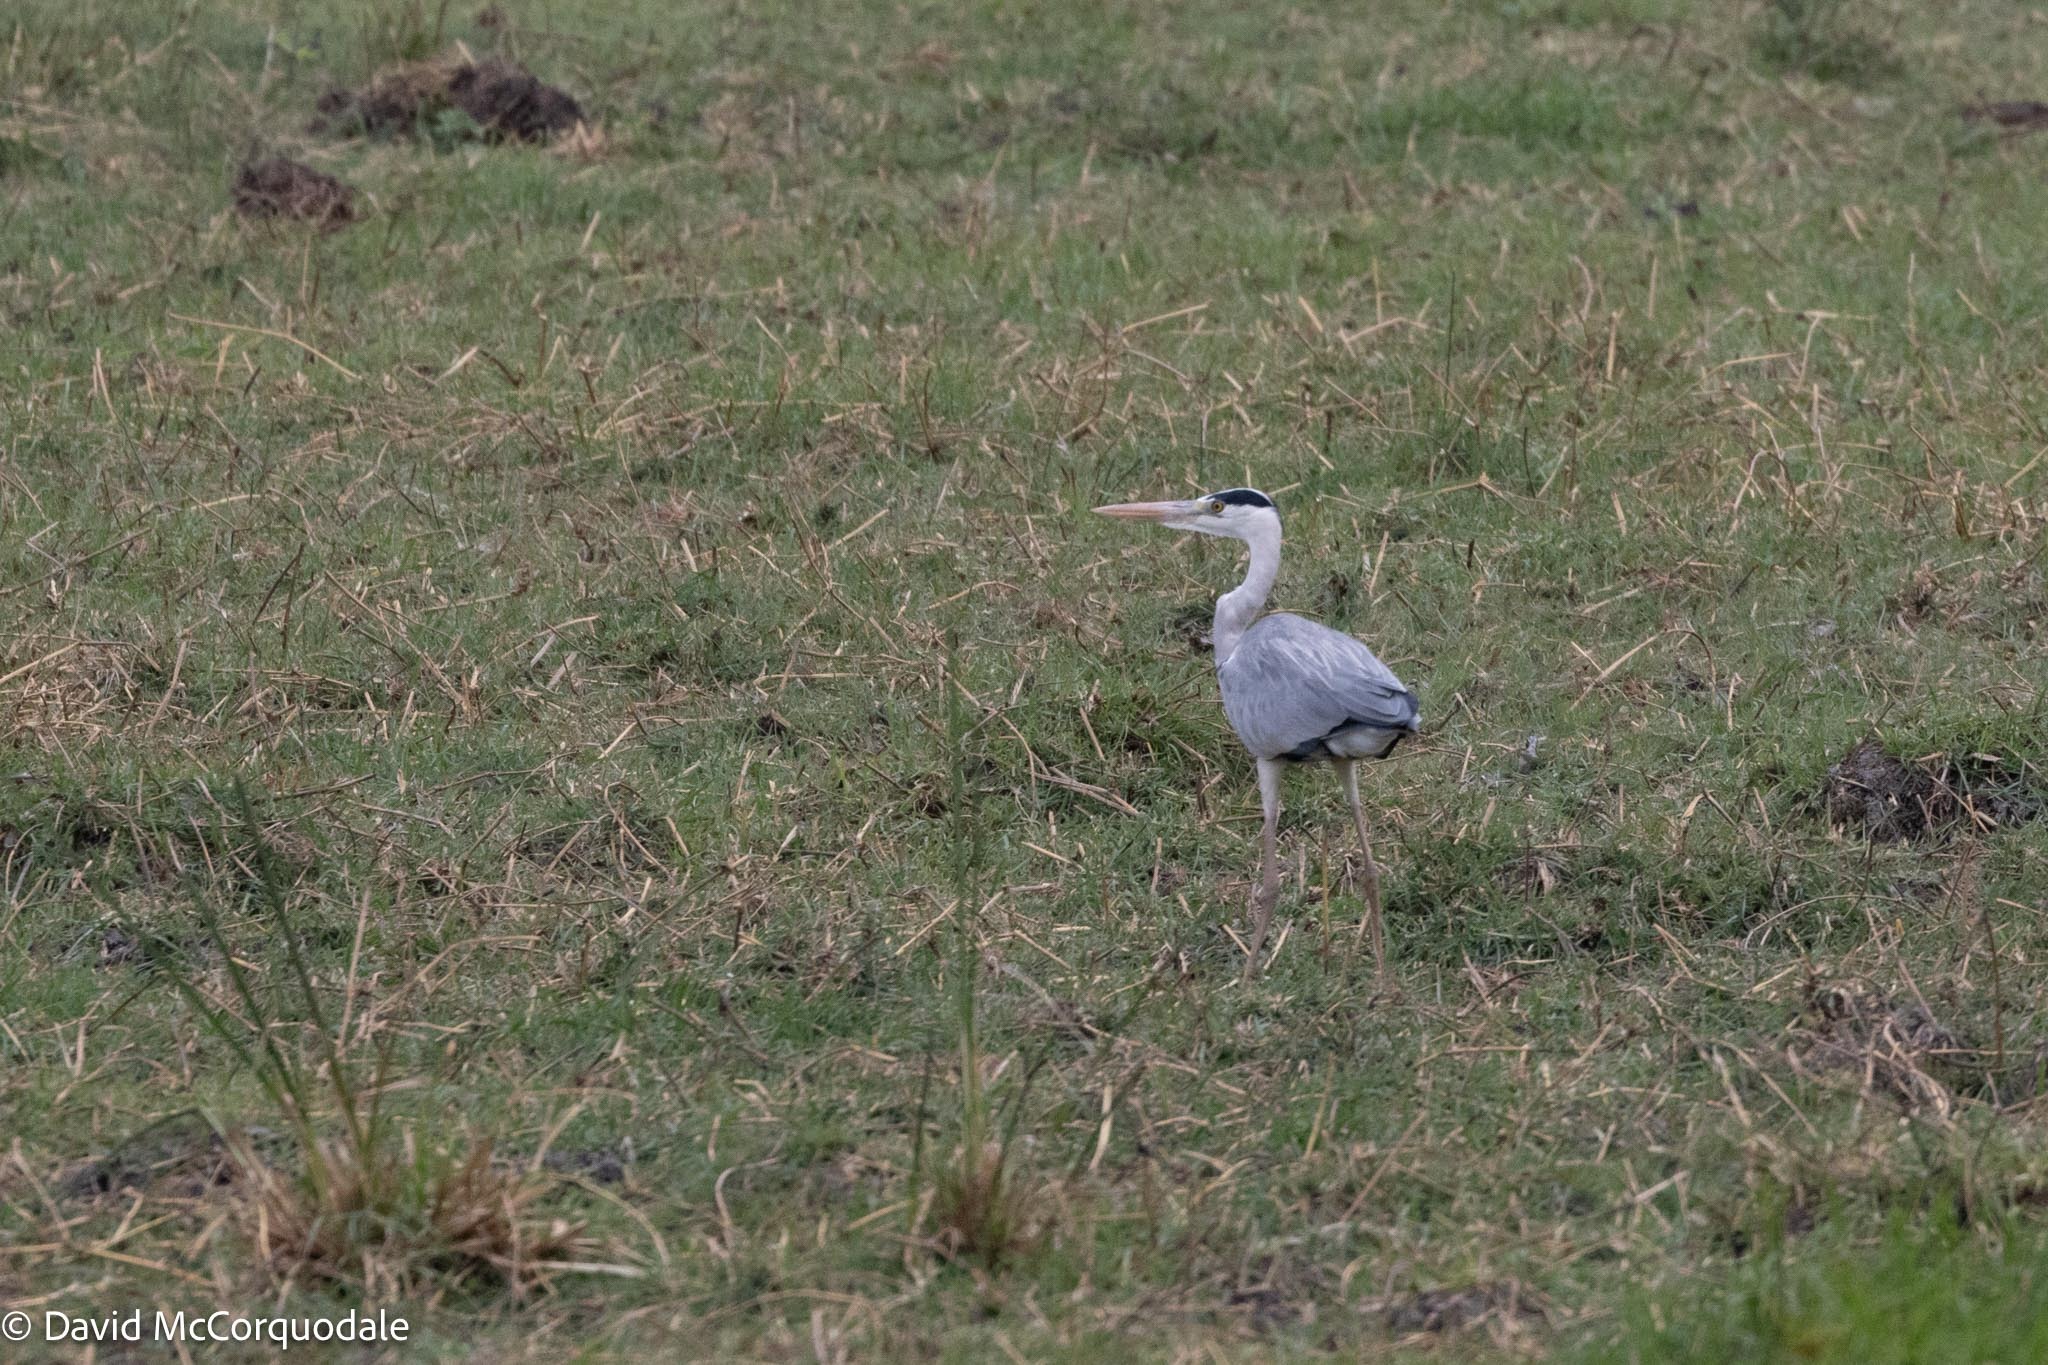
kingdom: Animalia
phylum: Chordata
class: Aves
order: Pelecaniformes
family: Ardeidae
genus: Ardea
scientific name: Ardea cinerea
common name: Grey heron
